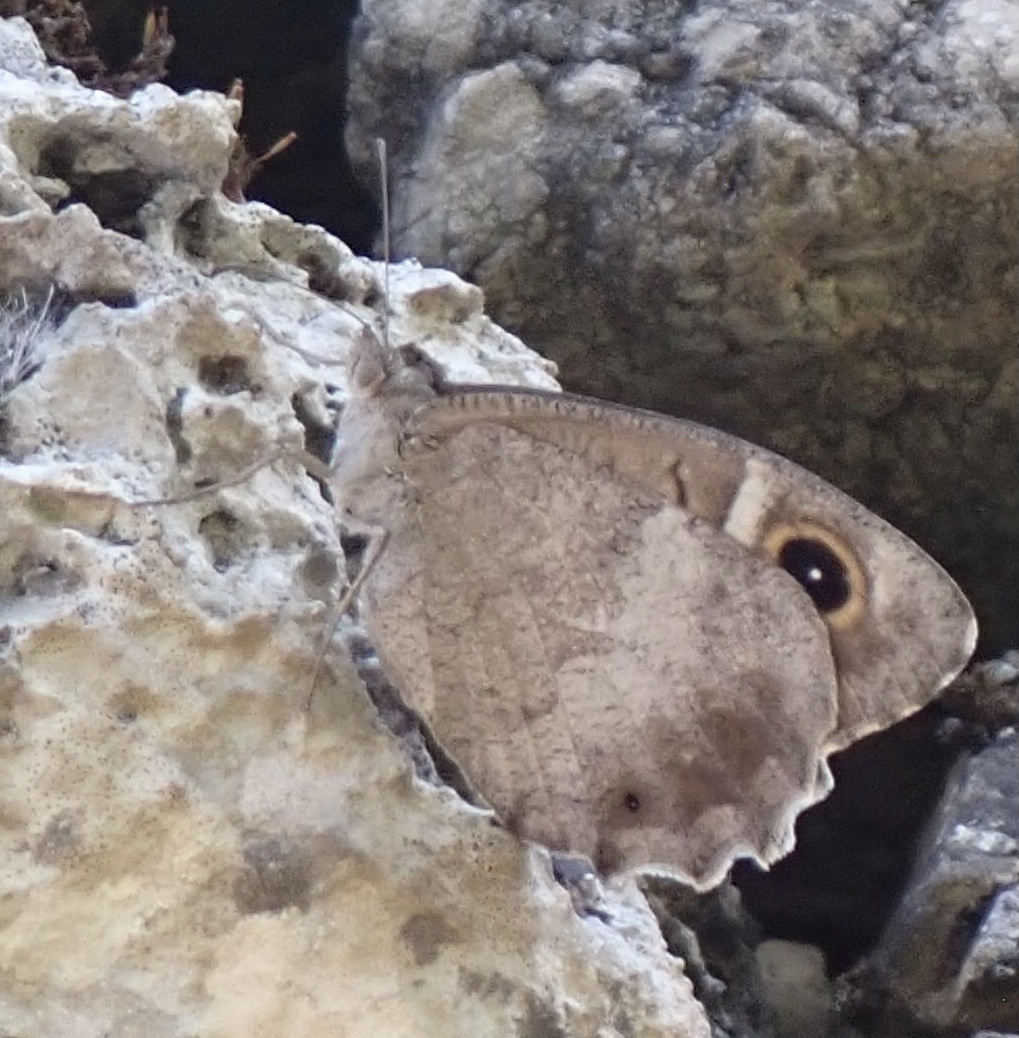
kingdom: Animalia
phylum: Arthropoda
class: Insecta
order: Lepidoptera
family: Nymphalidae
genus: Hipparchia
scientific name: Hipparchia statilinus
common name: Tree grayling
